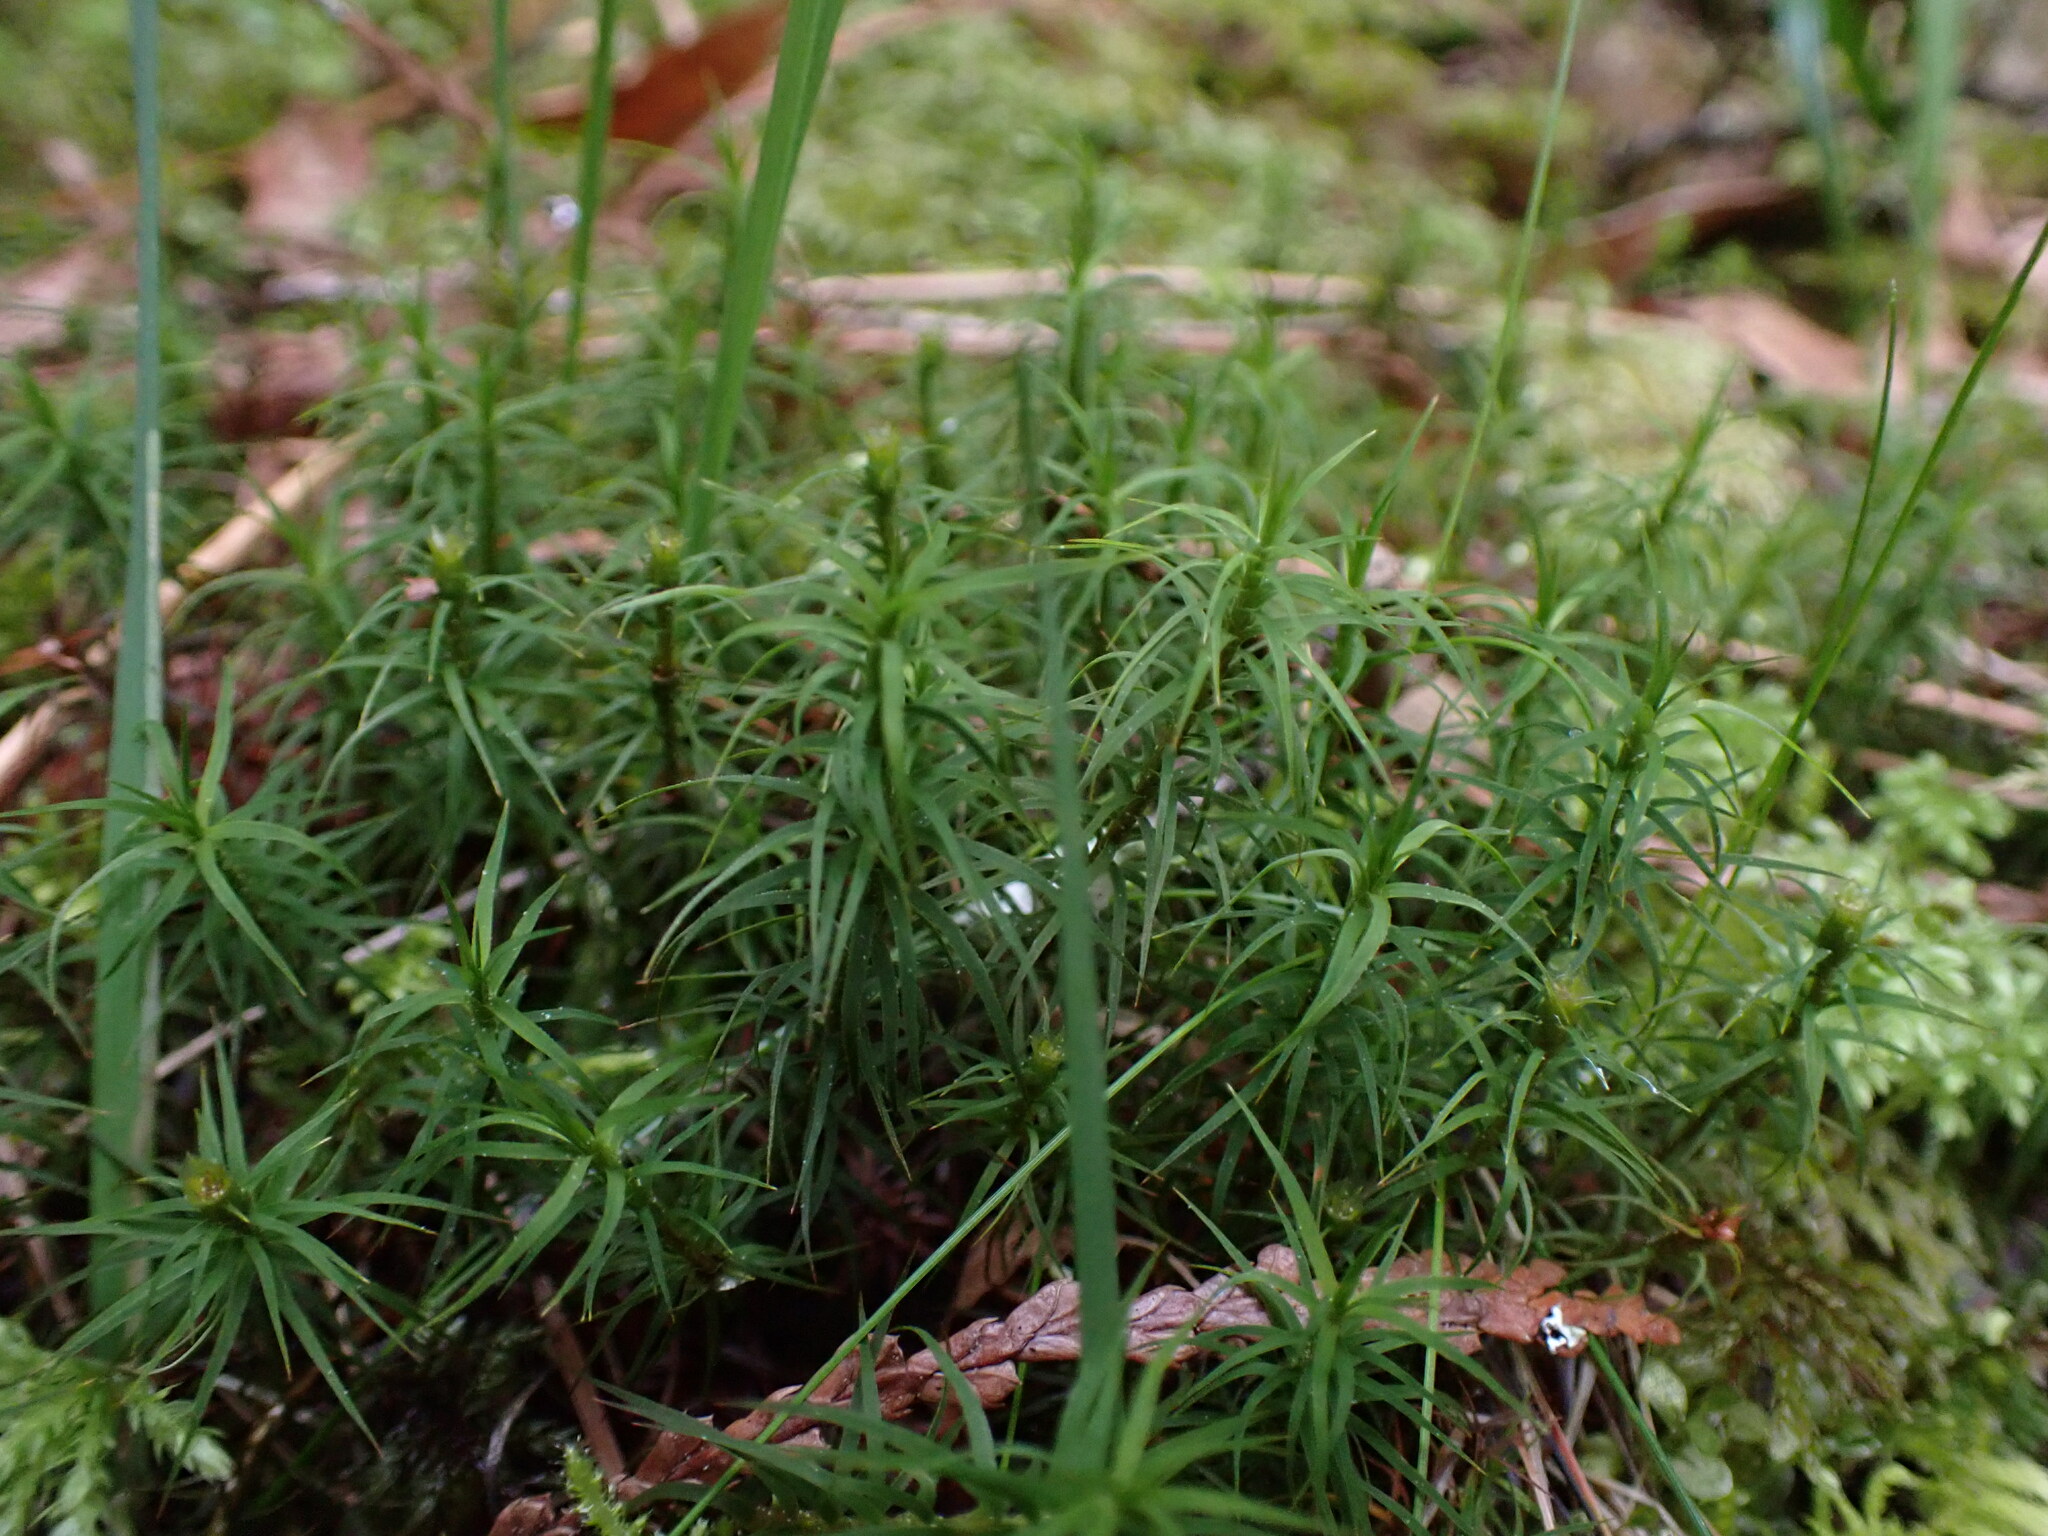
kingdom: Plantae
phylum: Bryophyta
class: Polytrichopsida
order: Polytrichales
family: Polytrichaceae
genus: Polytrichastrum
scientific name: Polytrichastrum alpinum
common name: Alpine haircap
